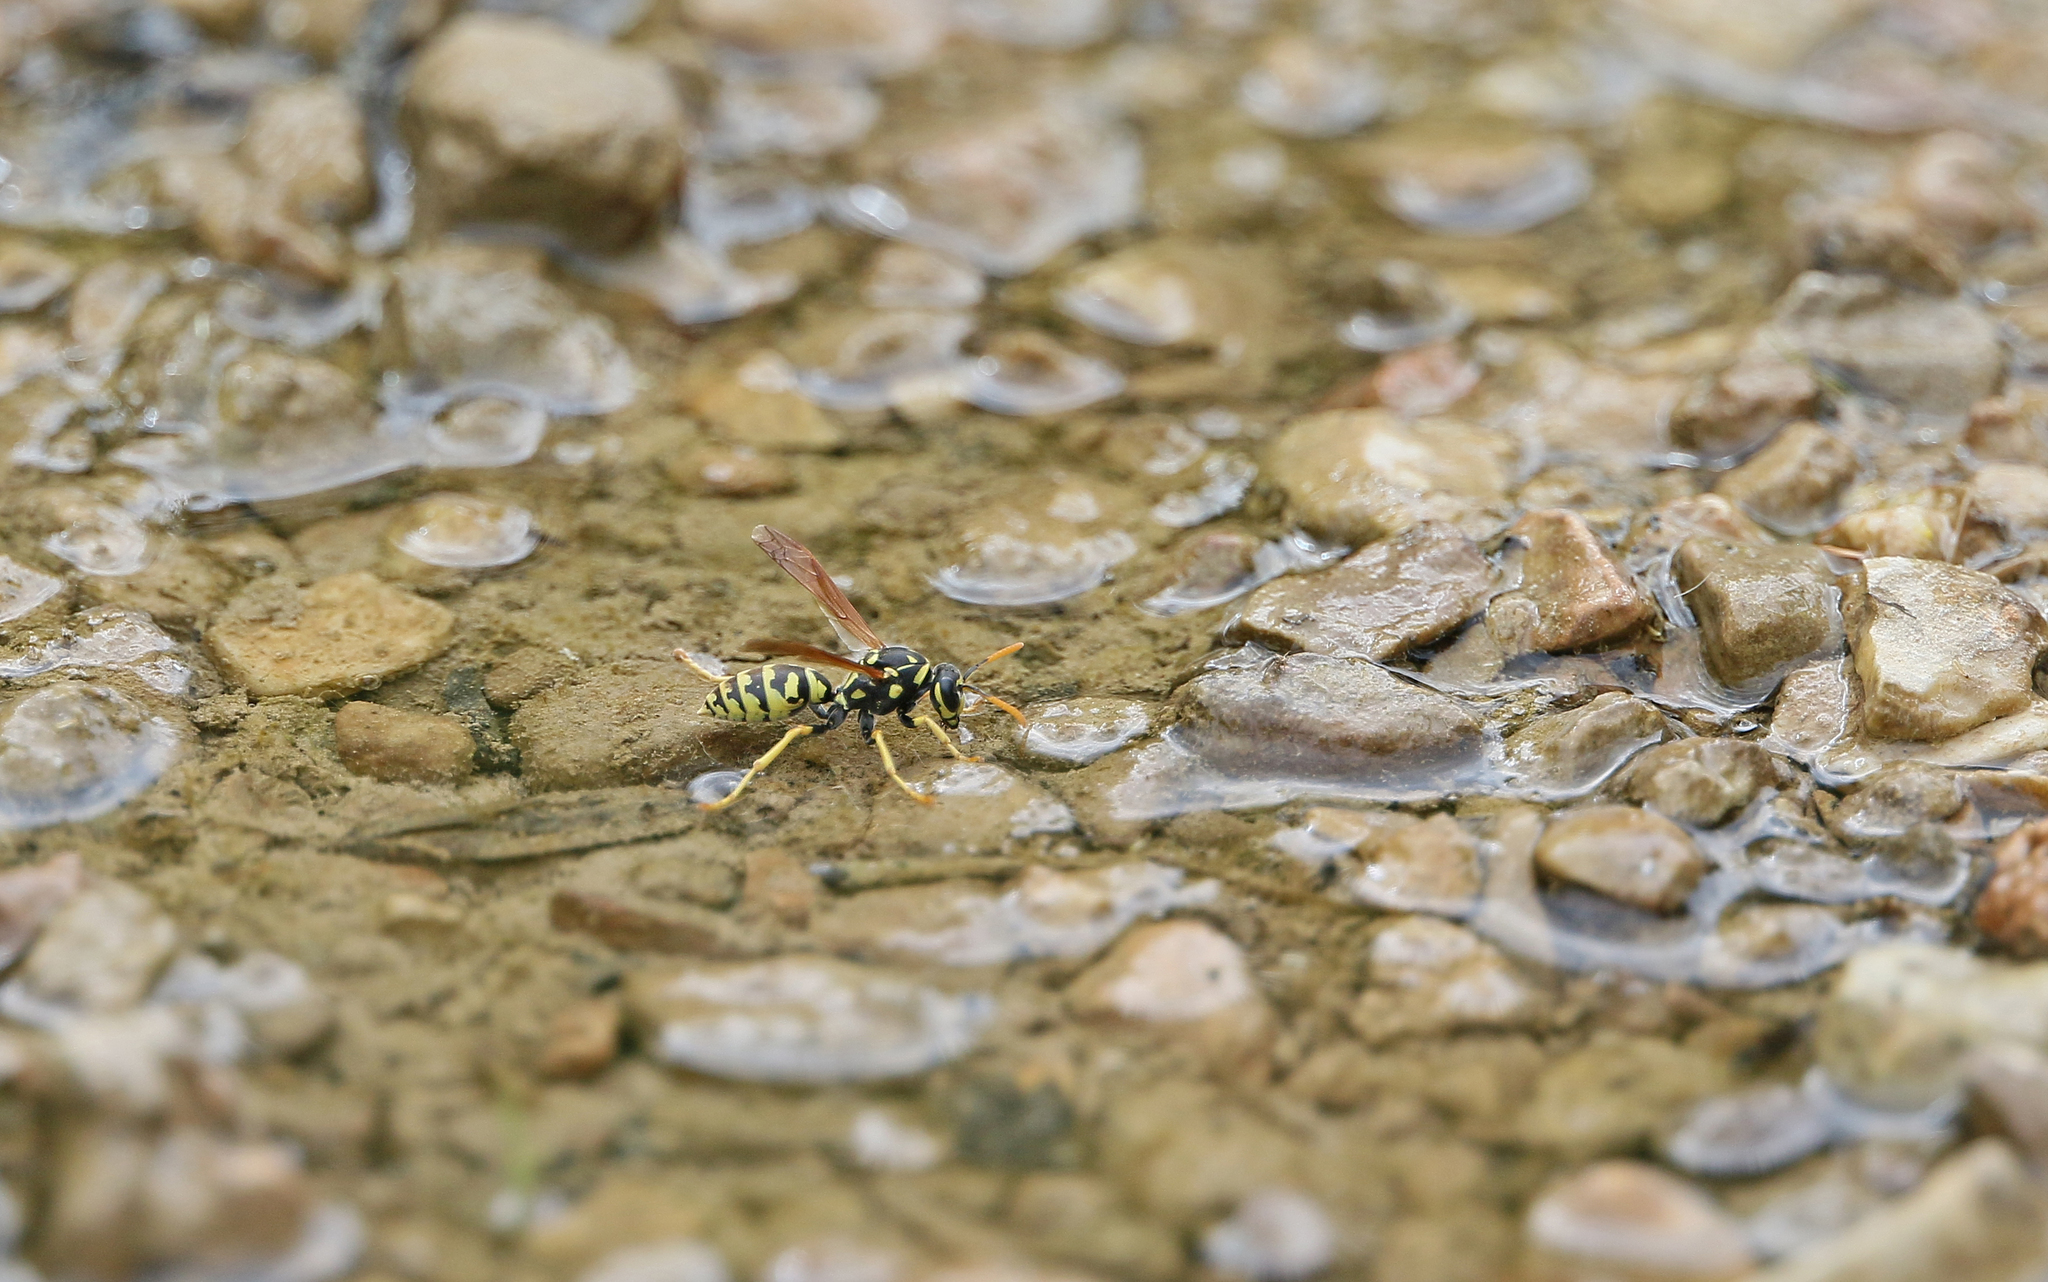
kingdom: Animalia
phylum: Arthropoda
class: Insecta
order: Hymenoptera
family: Eumenidae
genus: Polistes
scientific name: Polistes dominula
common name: Paper wasp
